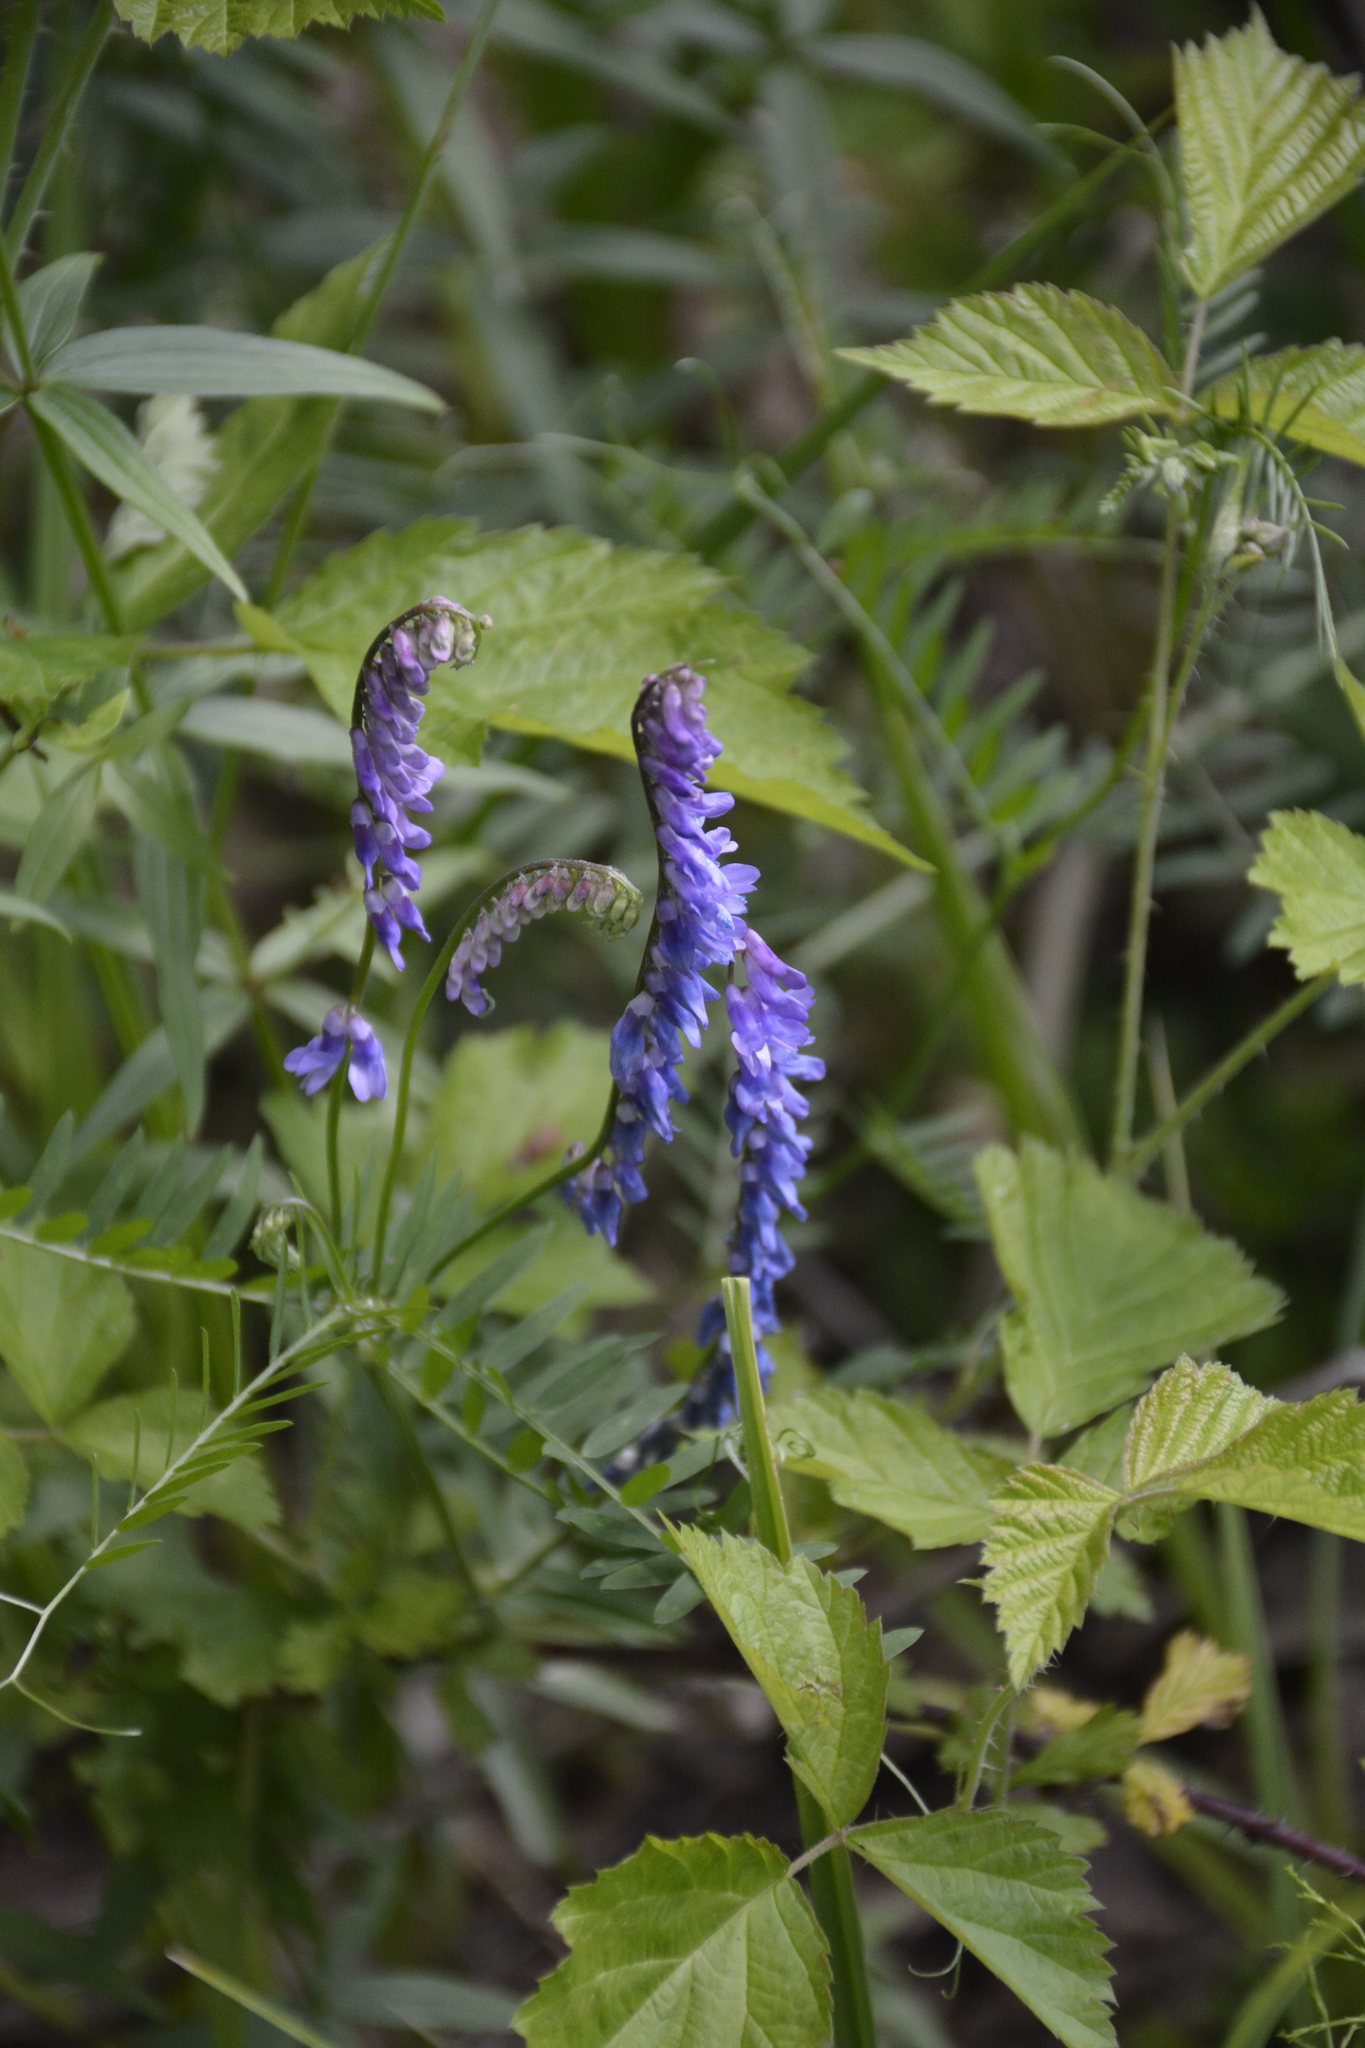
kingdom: Plantae
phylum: Tracheophyta
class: Magnoliopsida
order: Fabales
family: Fabaceae
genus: Vicia
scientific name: Vicia cracca
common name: Bird vetch
